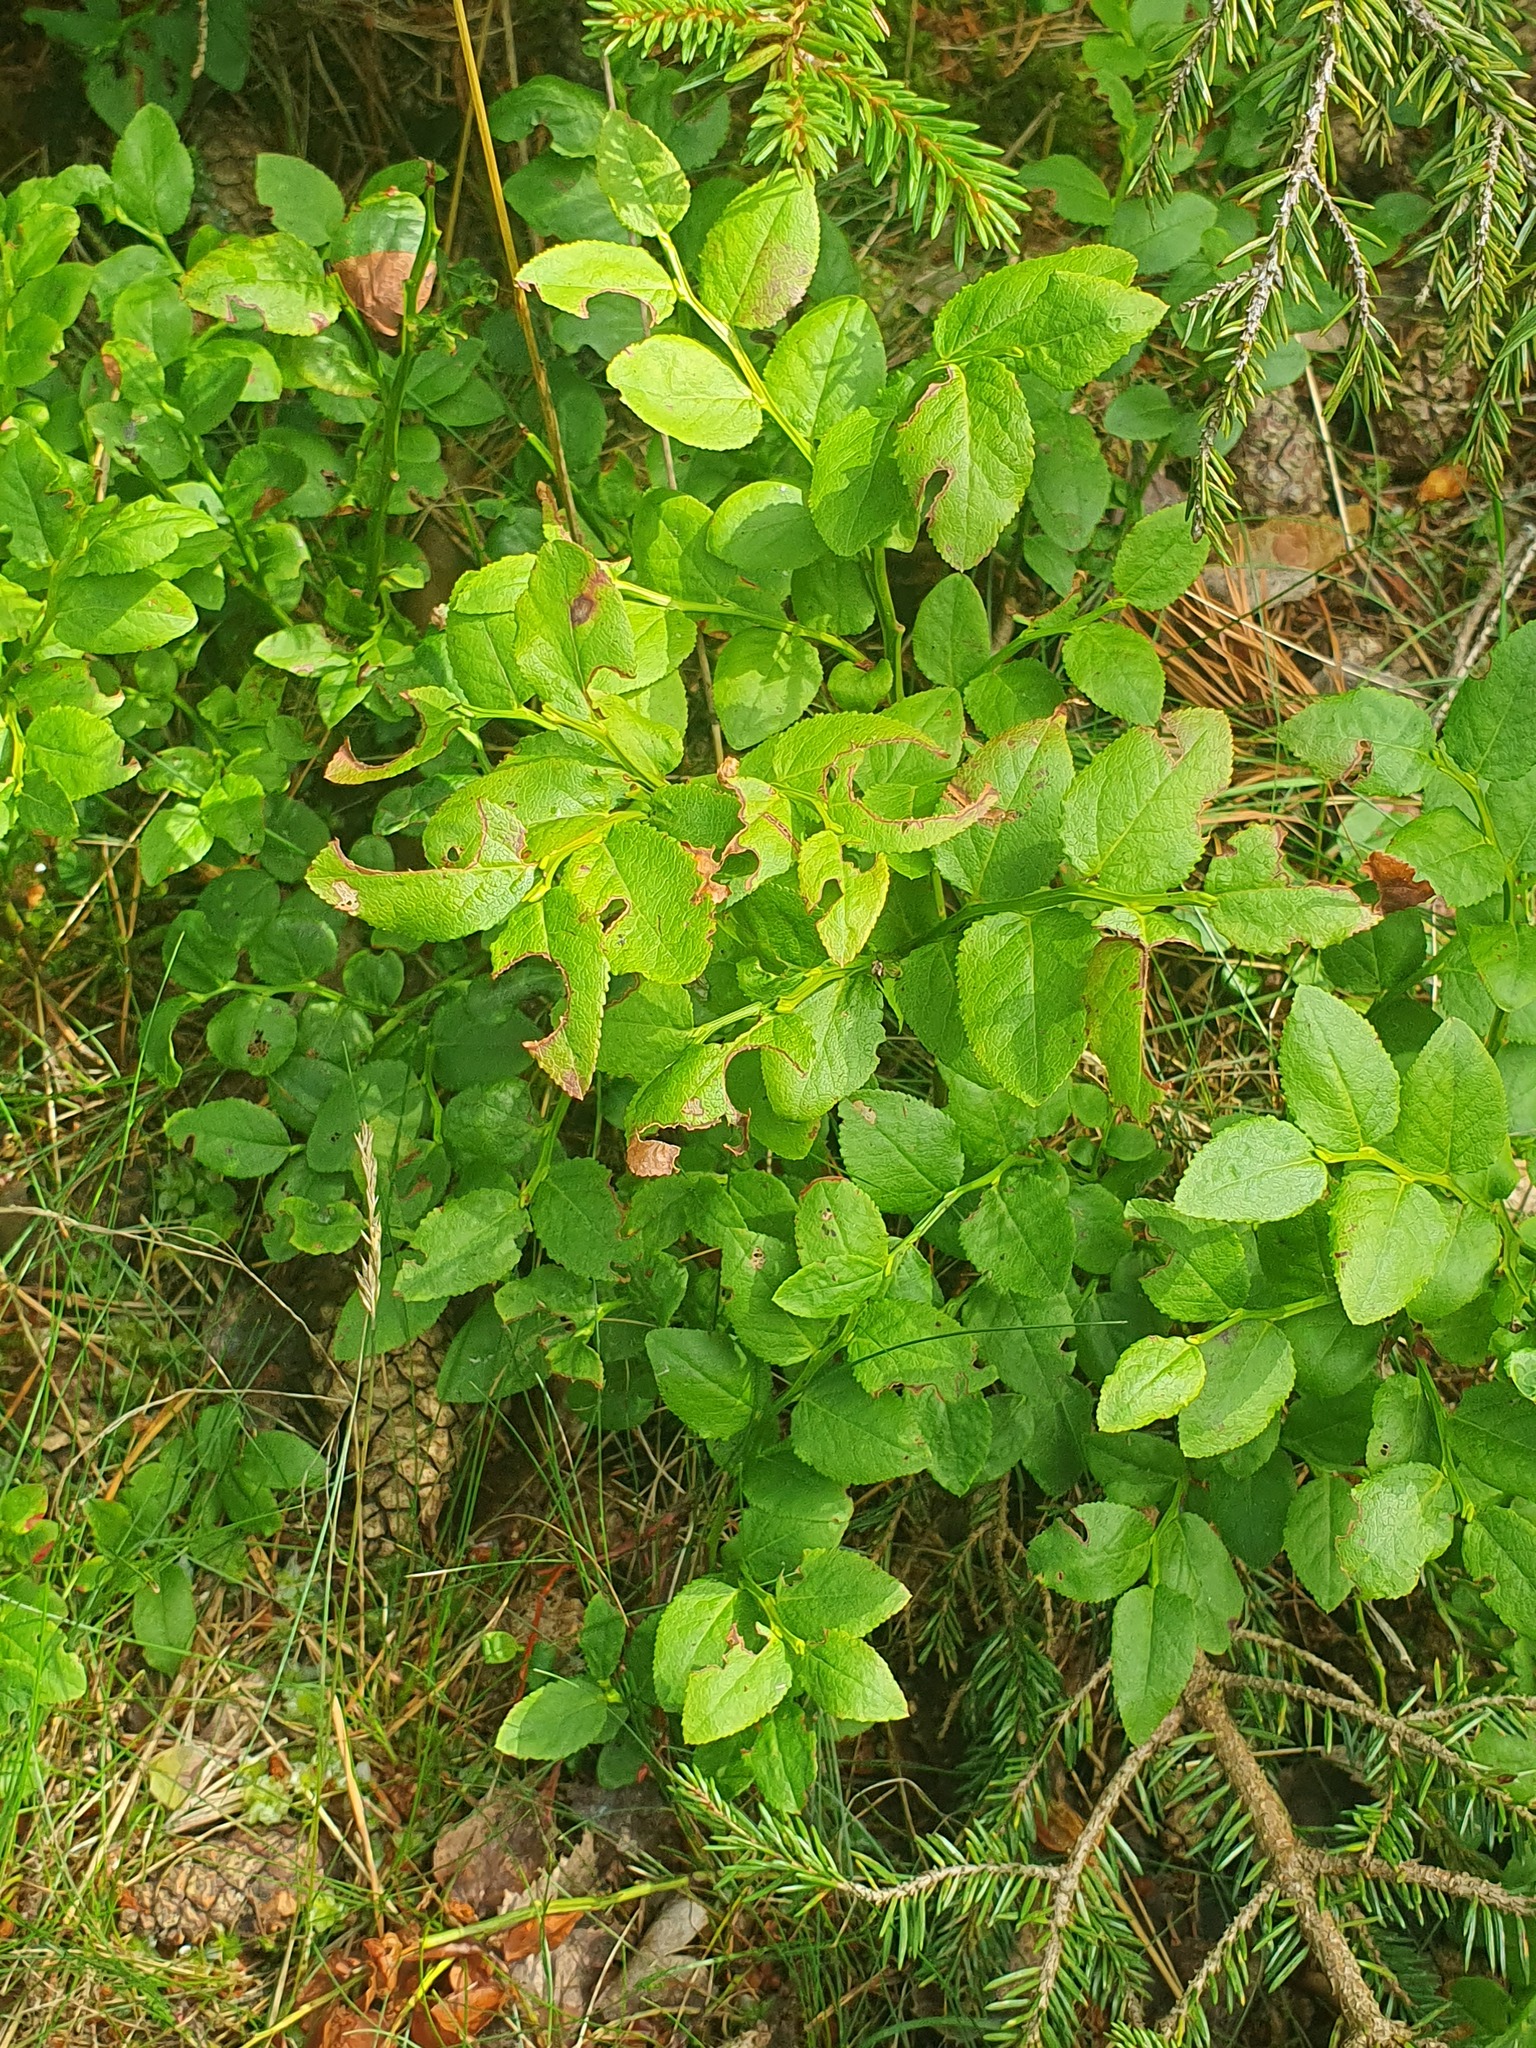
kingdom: Plantae
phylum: Tracheophyta
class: Magnoliopsida
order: Ericales
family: Ericaceae
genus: Vaccinium
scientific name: Vaccinium myrtillus
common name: Bilberry
